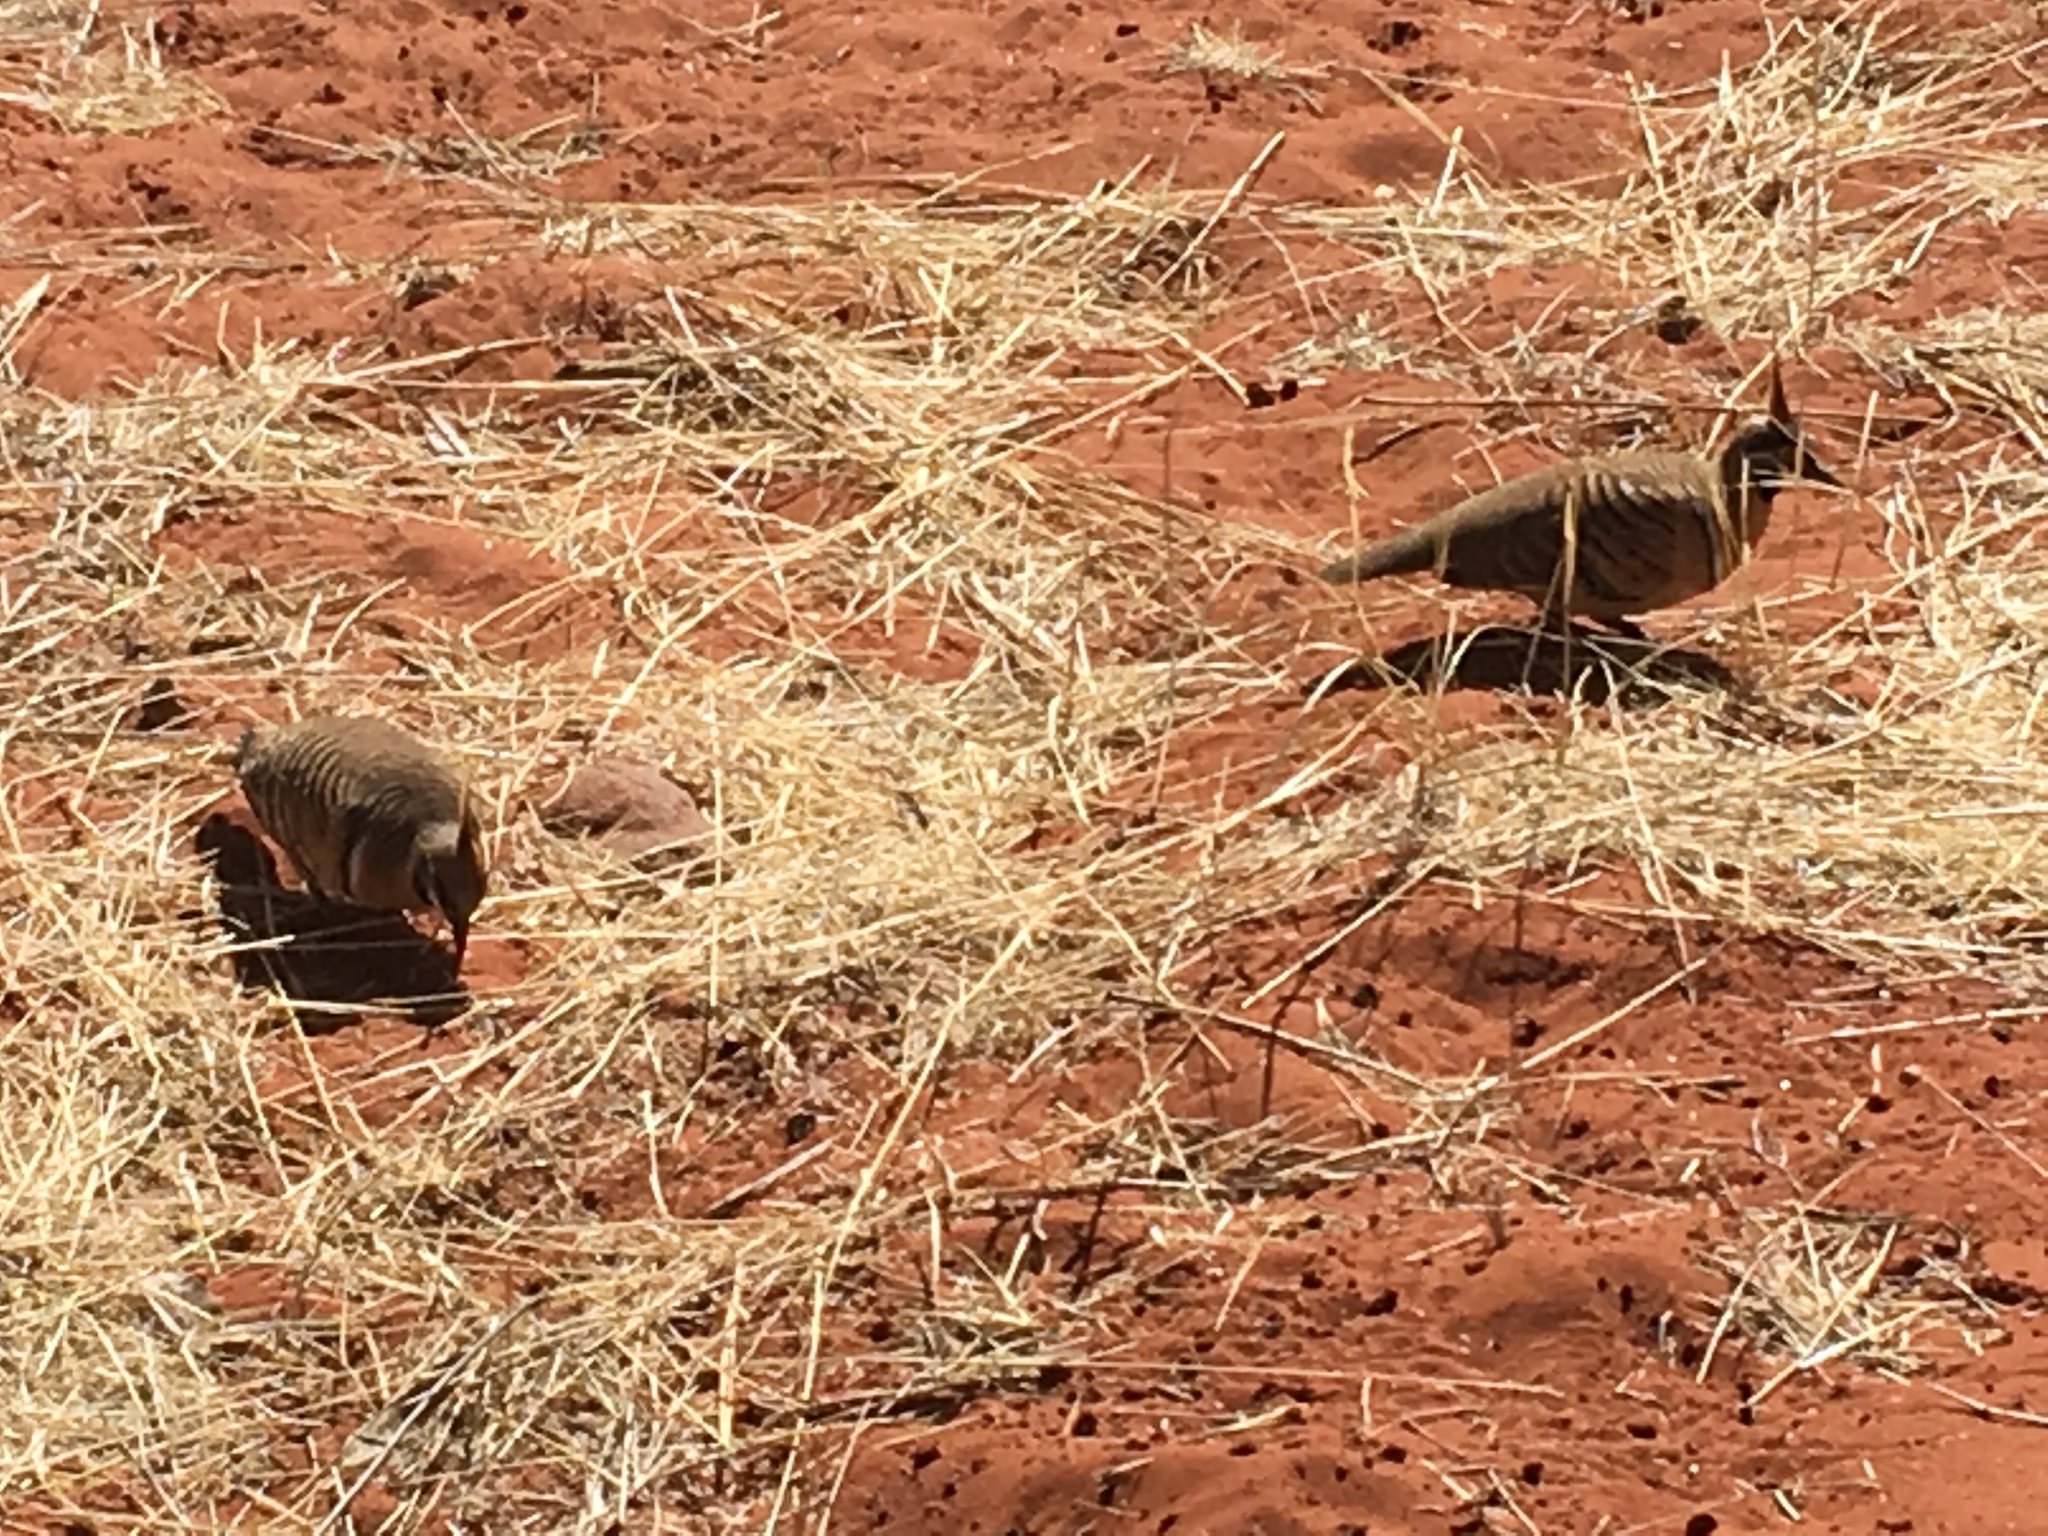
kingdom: Animalia
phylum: Chordata
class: Aves
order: Columbiformes
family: Columbidae
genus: Geophaps
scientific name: Geophaps plumifera
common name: Spinifex pigeon
